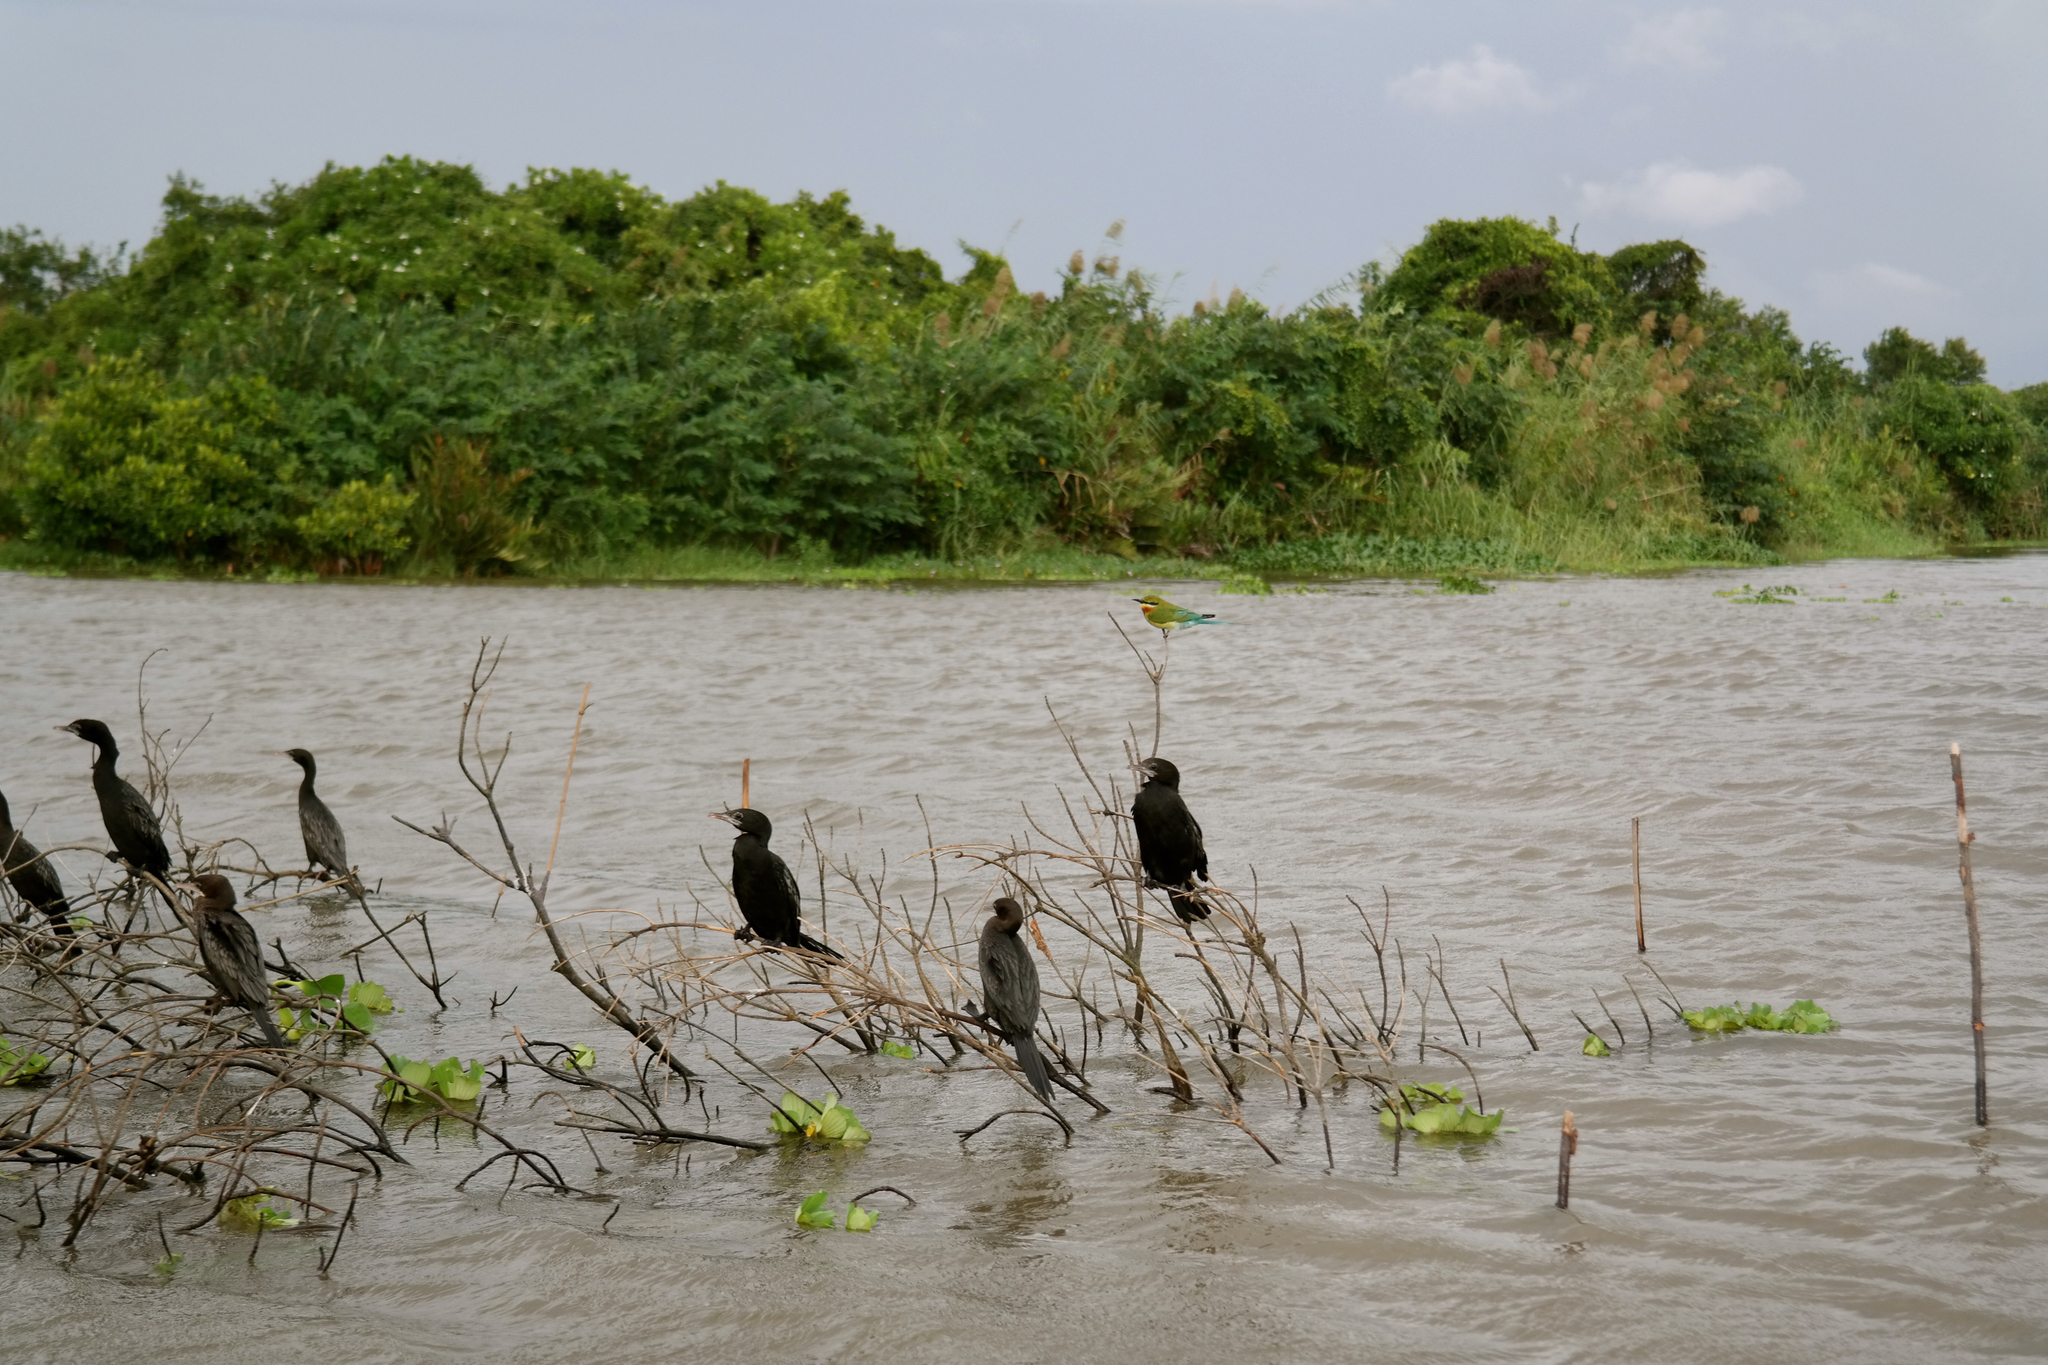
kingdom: Animalia
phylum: Chordata
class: Aves
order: Suliformes
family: Phalacrocoracidae
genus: Microcarbo
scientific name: Microcarbo niger
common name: Little cormorant
